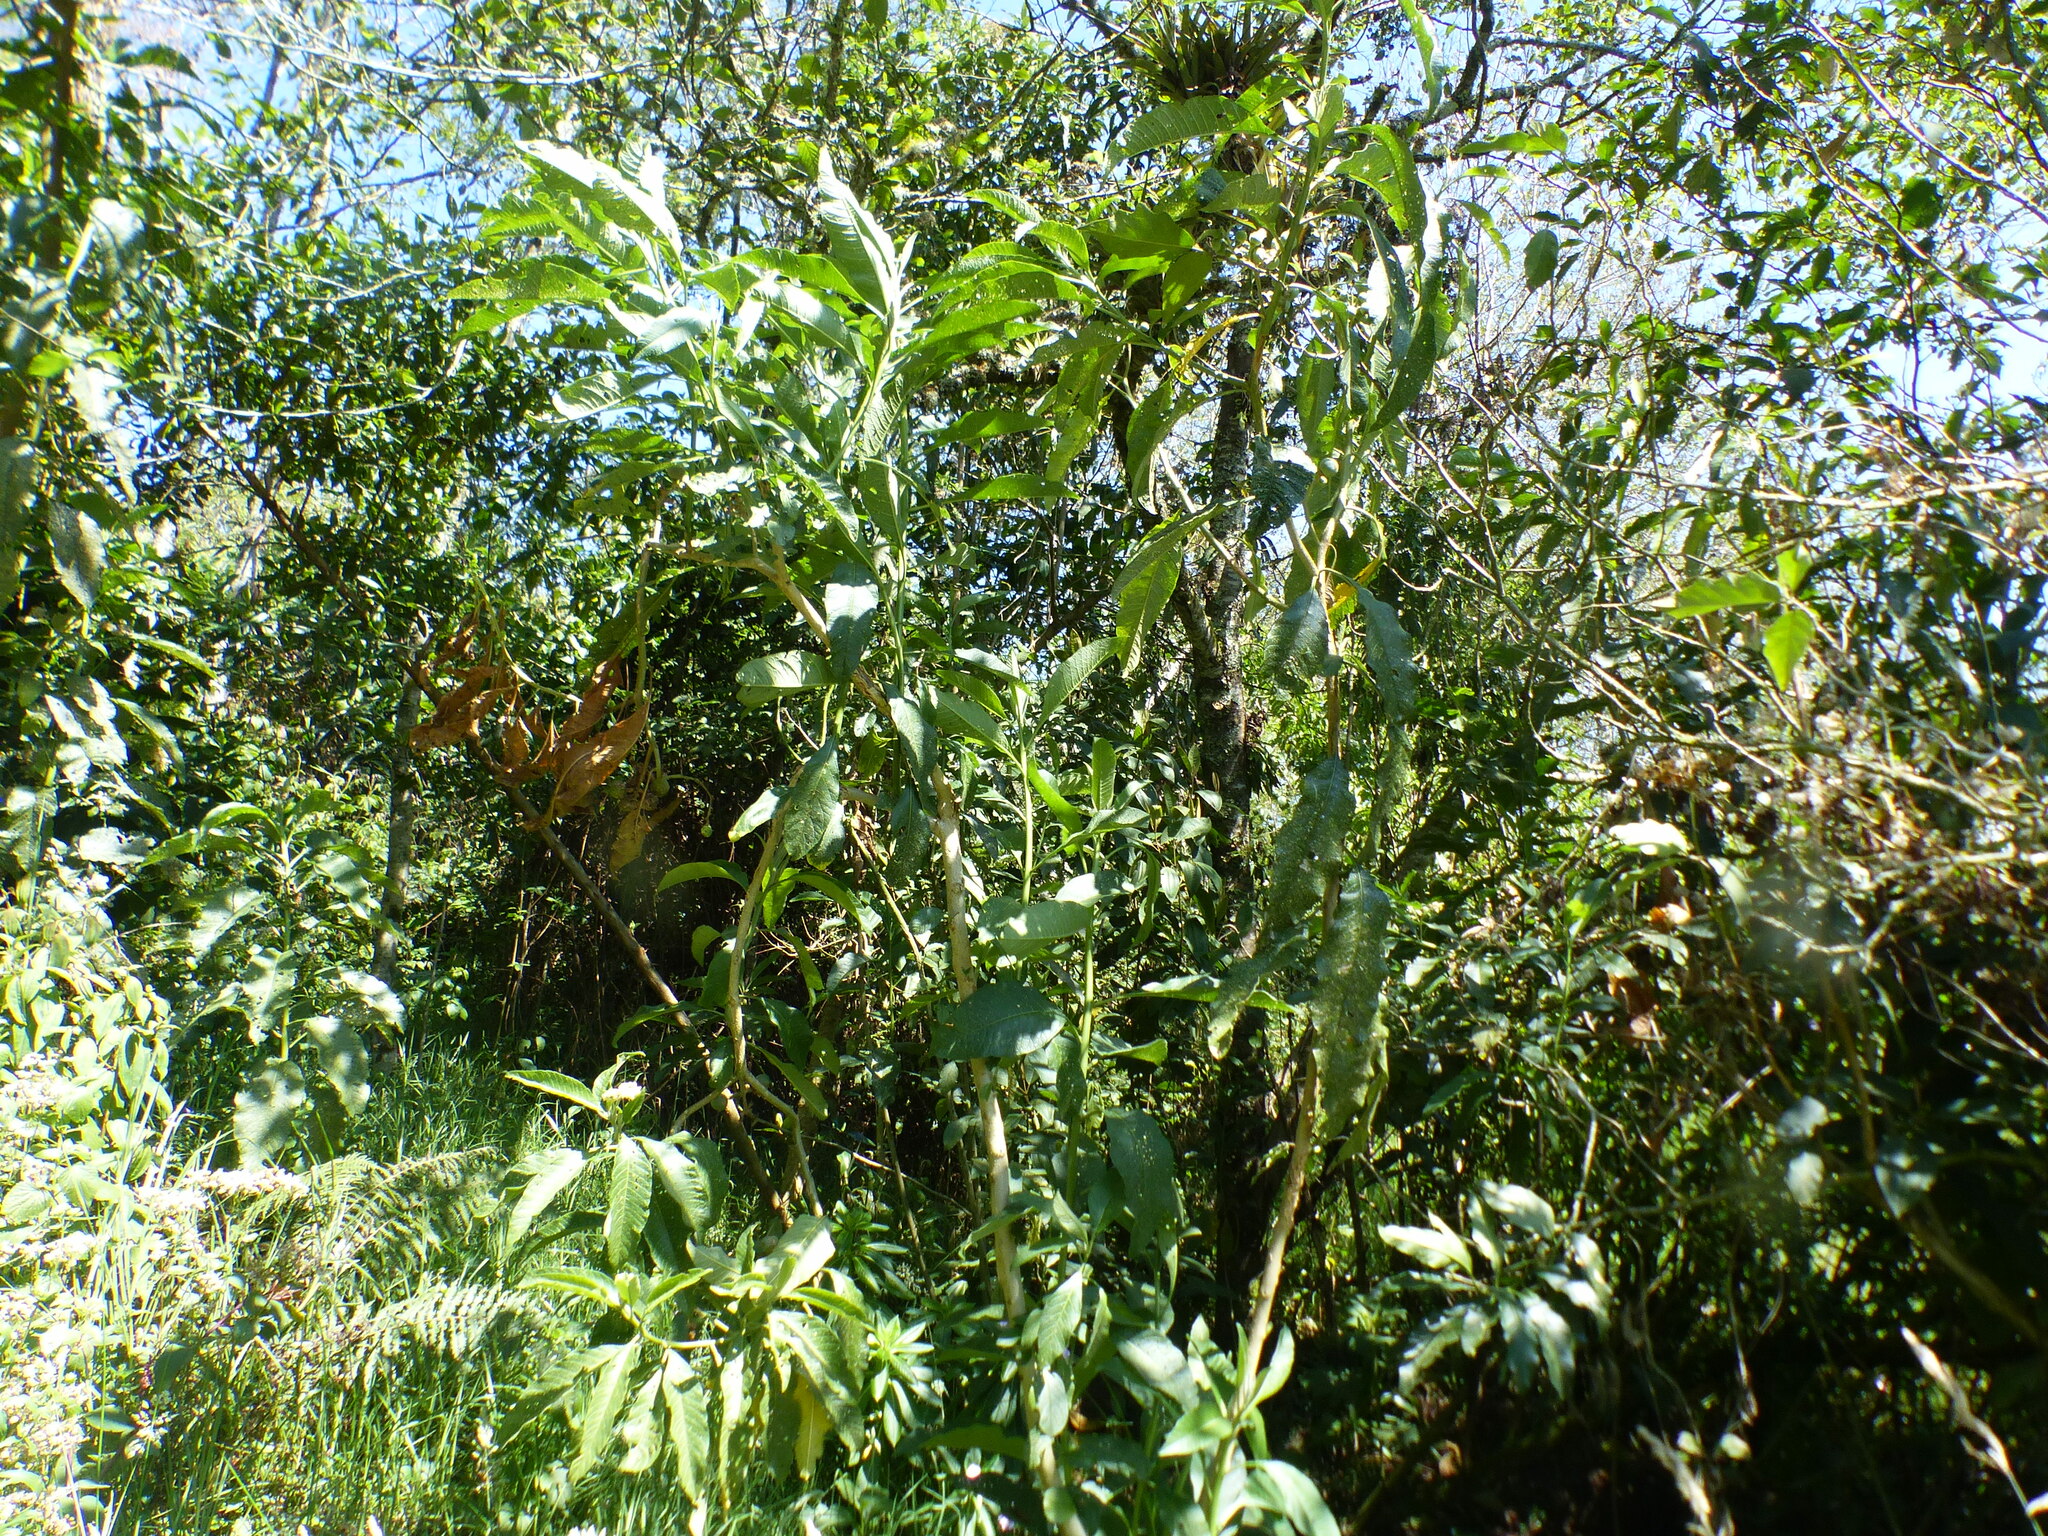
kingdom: Plantae
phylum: Tracheophyta
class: Magnoliopsida
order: Solanales
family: Solanaceae
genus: Solanum
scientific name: Solanum oblongifolium
